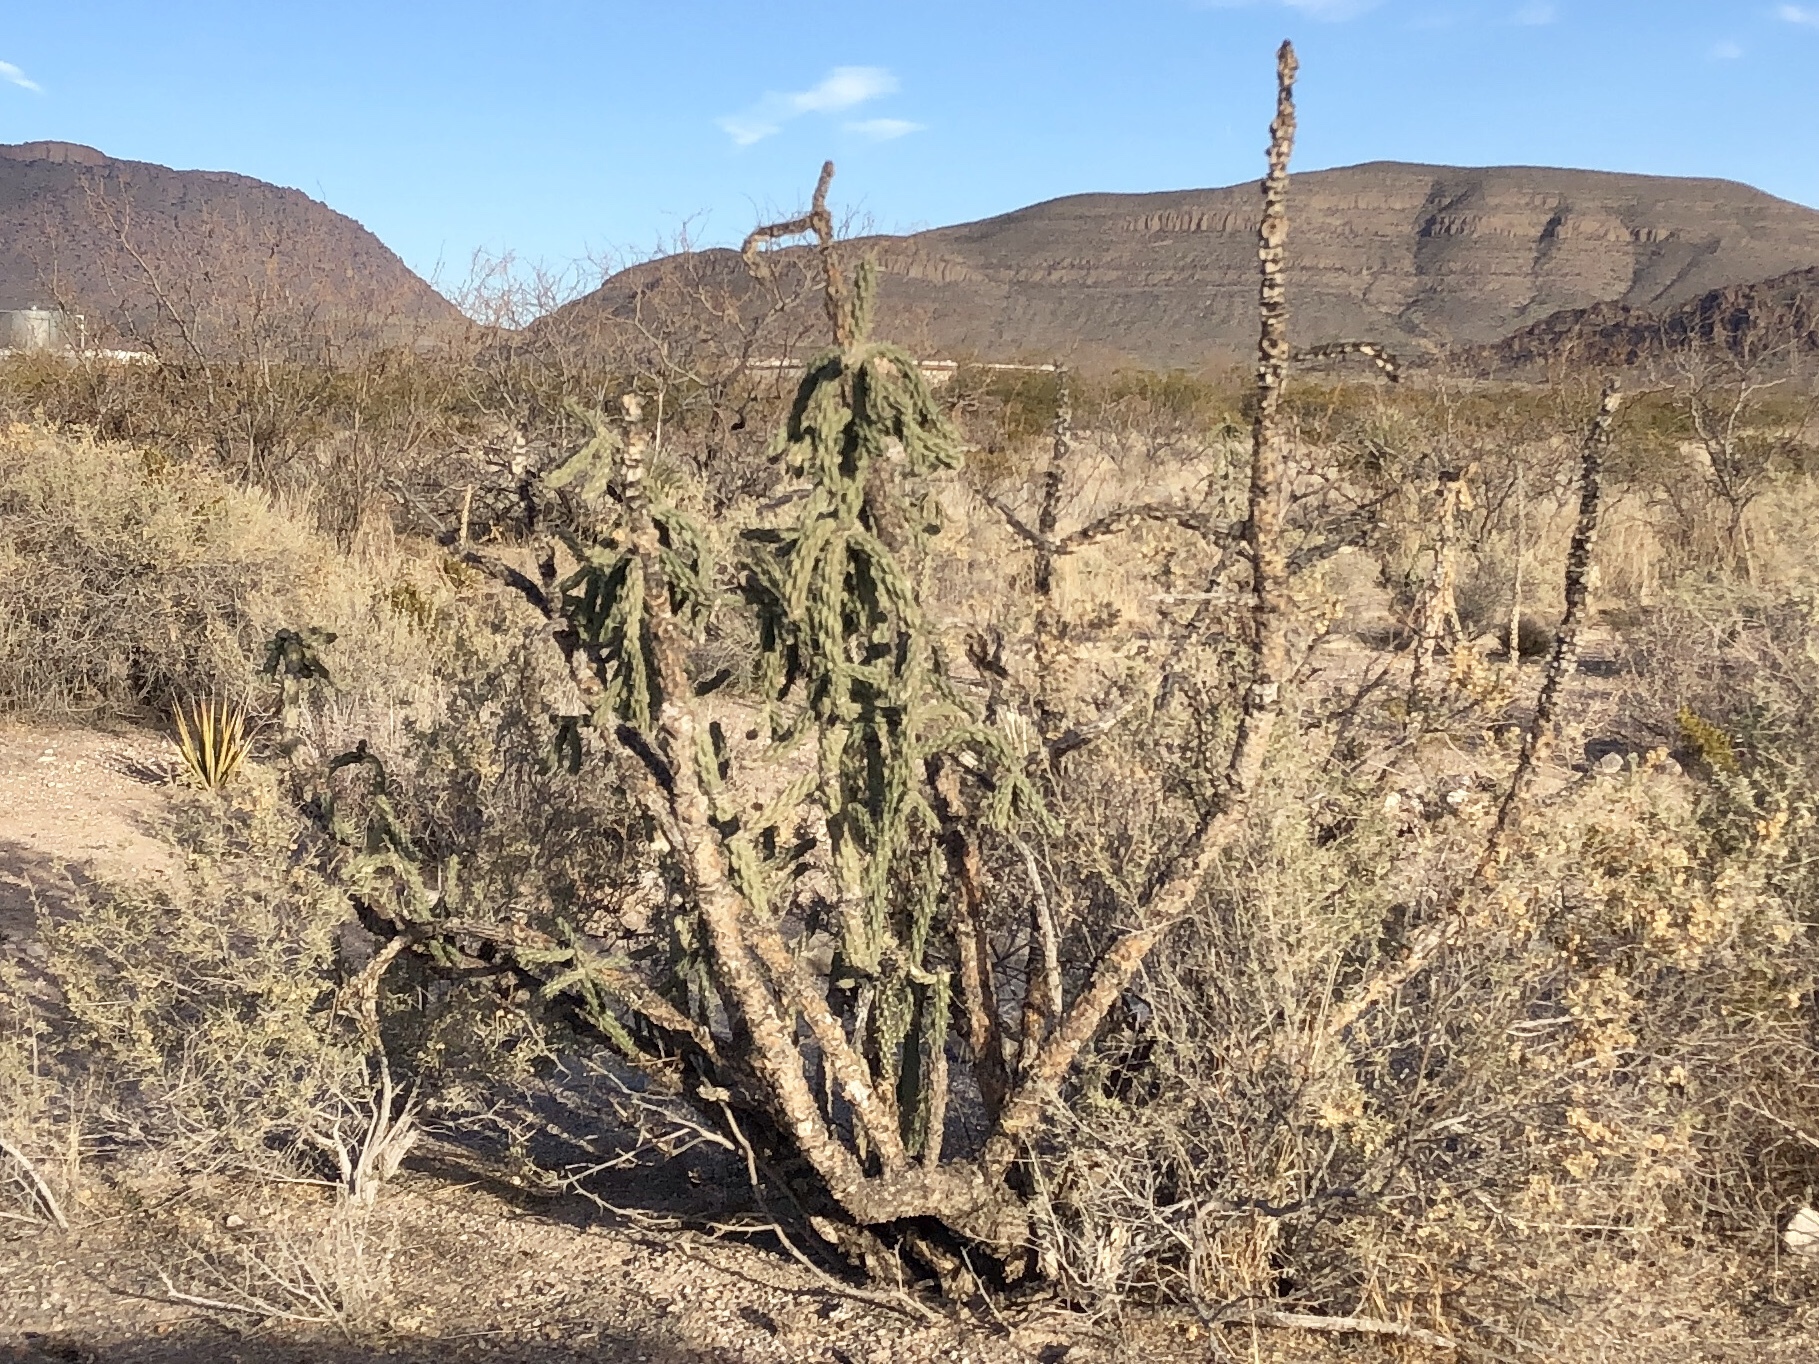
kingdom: Plantae
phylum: Tracheophyta
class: Magnoliopsida
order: Caryophyllales
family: Cactaceae
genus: Cylindropuntia
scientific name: Cylindropuntia imbricata
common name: Candelabrum cactus
